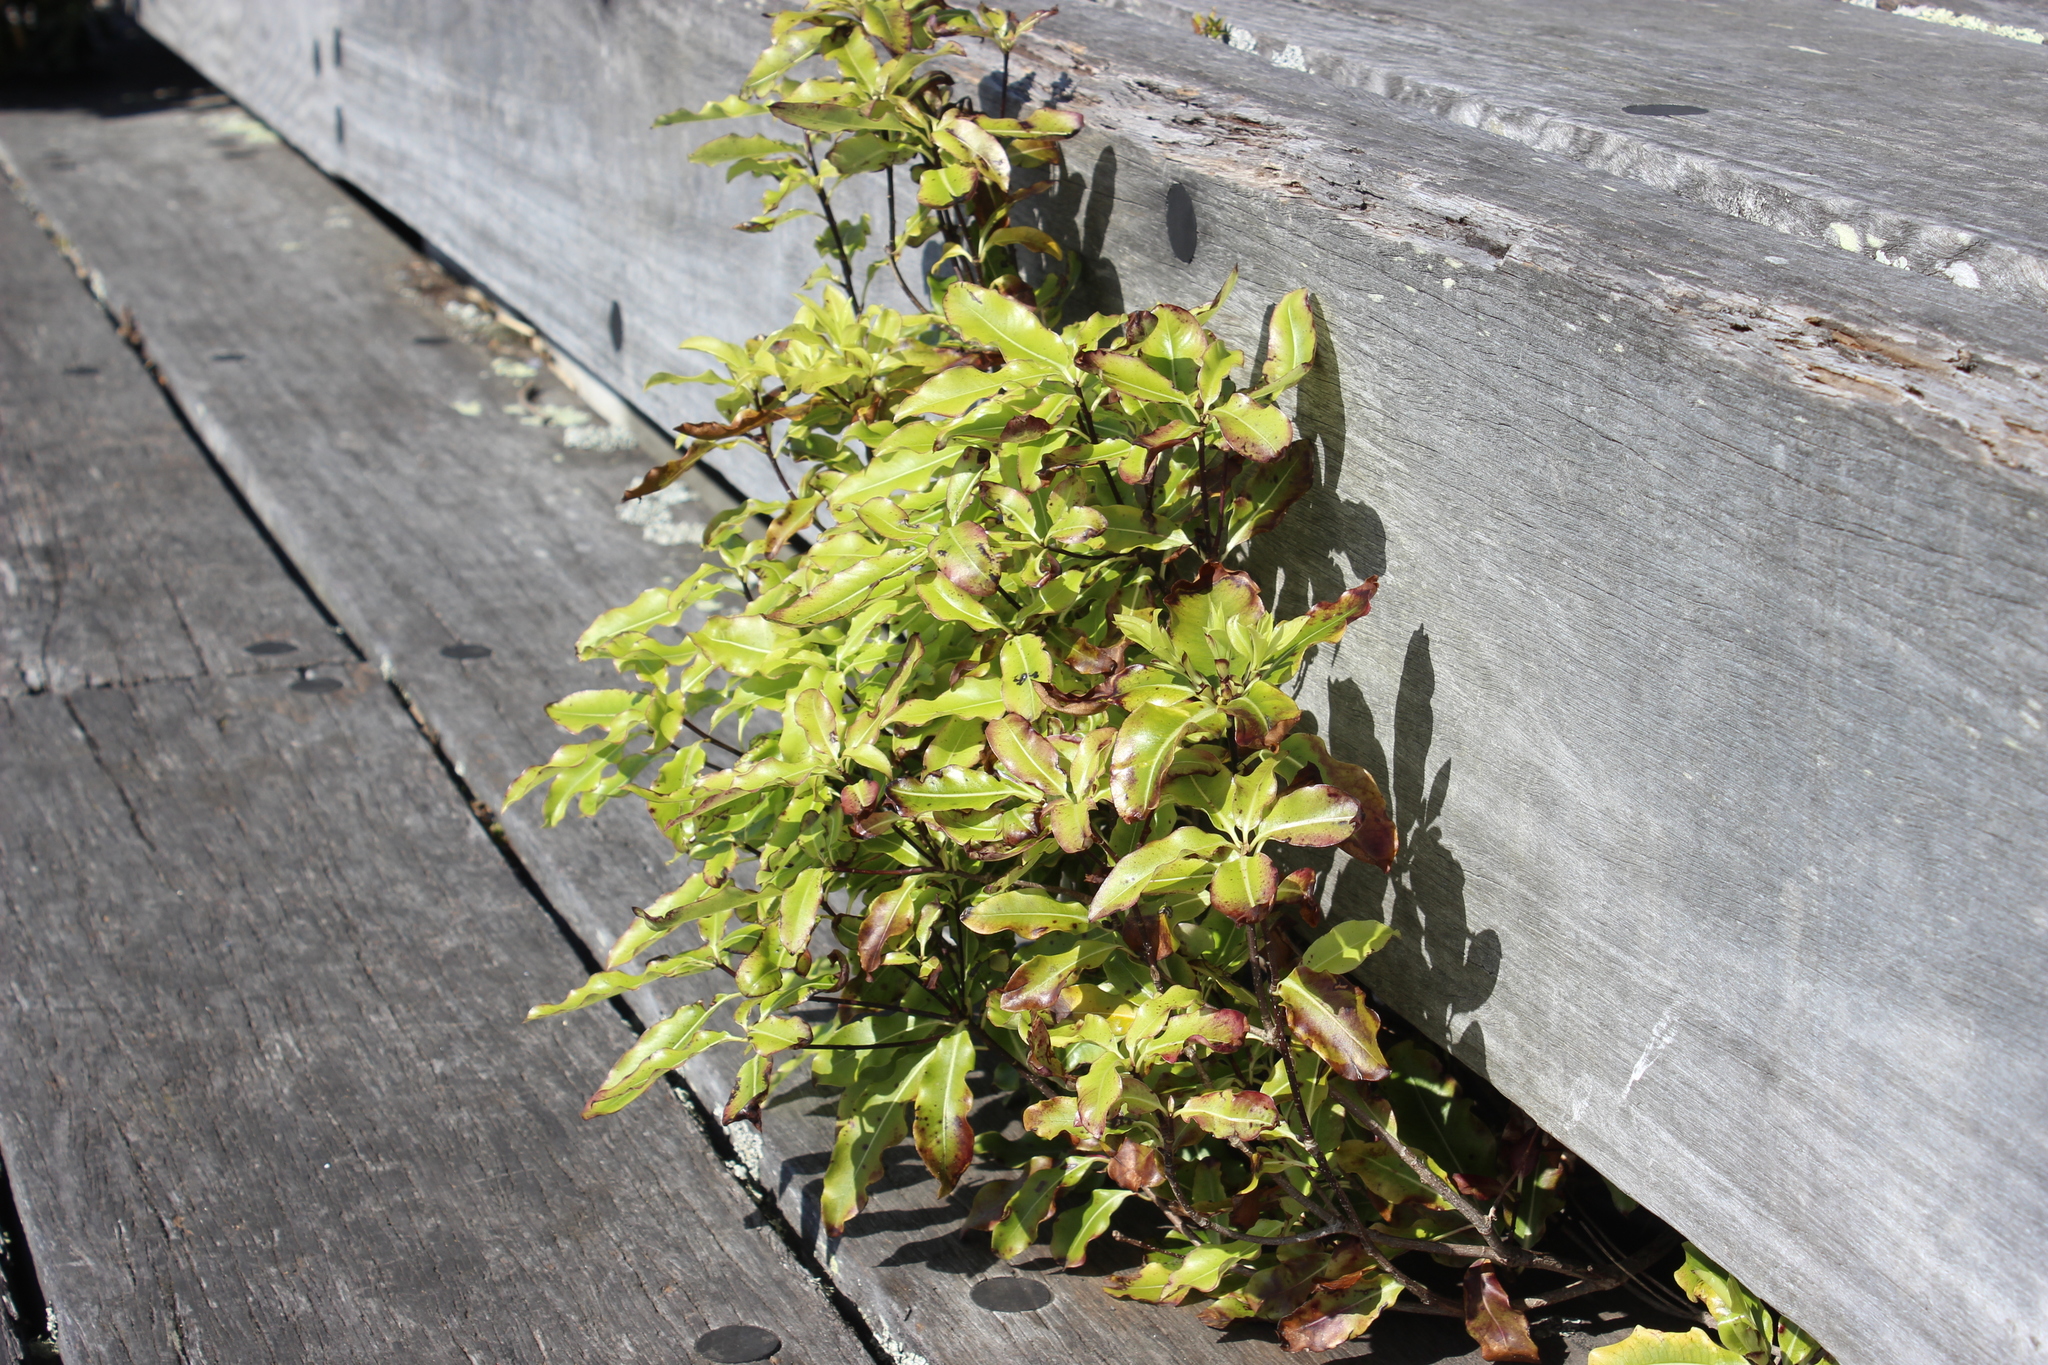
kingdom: Plantae
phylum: Tracheophyta
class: Magnoliopsida
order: Apiales
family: Pittosporaceae
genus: Pittosporum
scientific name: Pittosporum eugenioides
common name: Lemonwood
